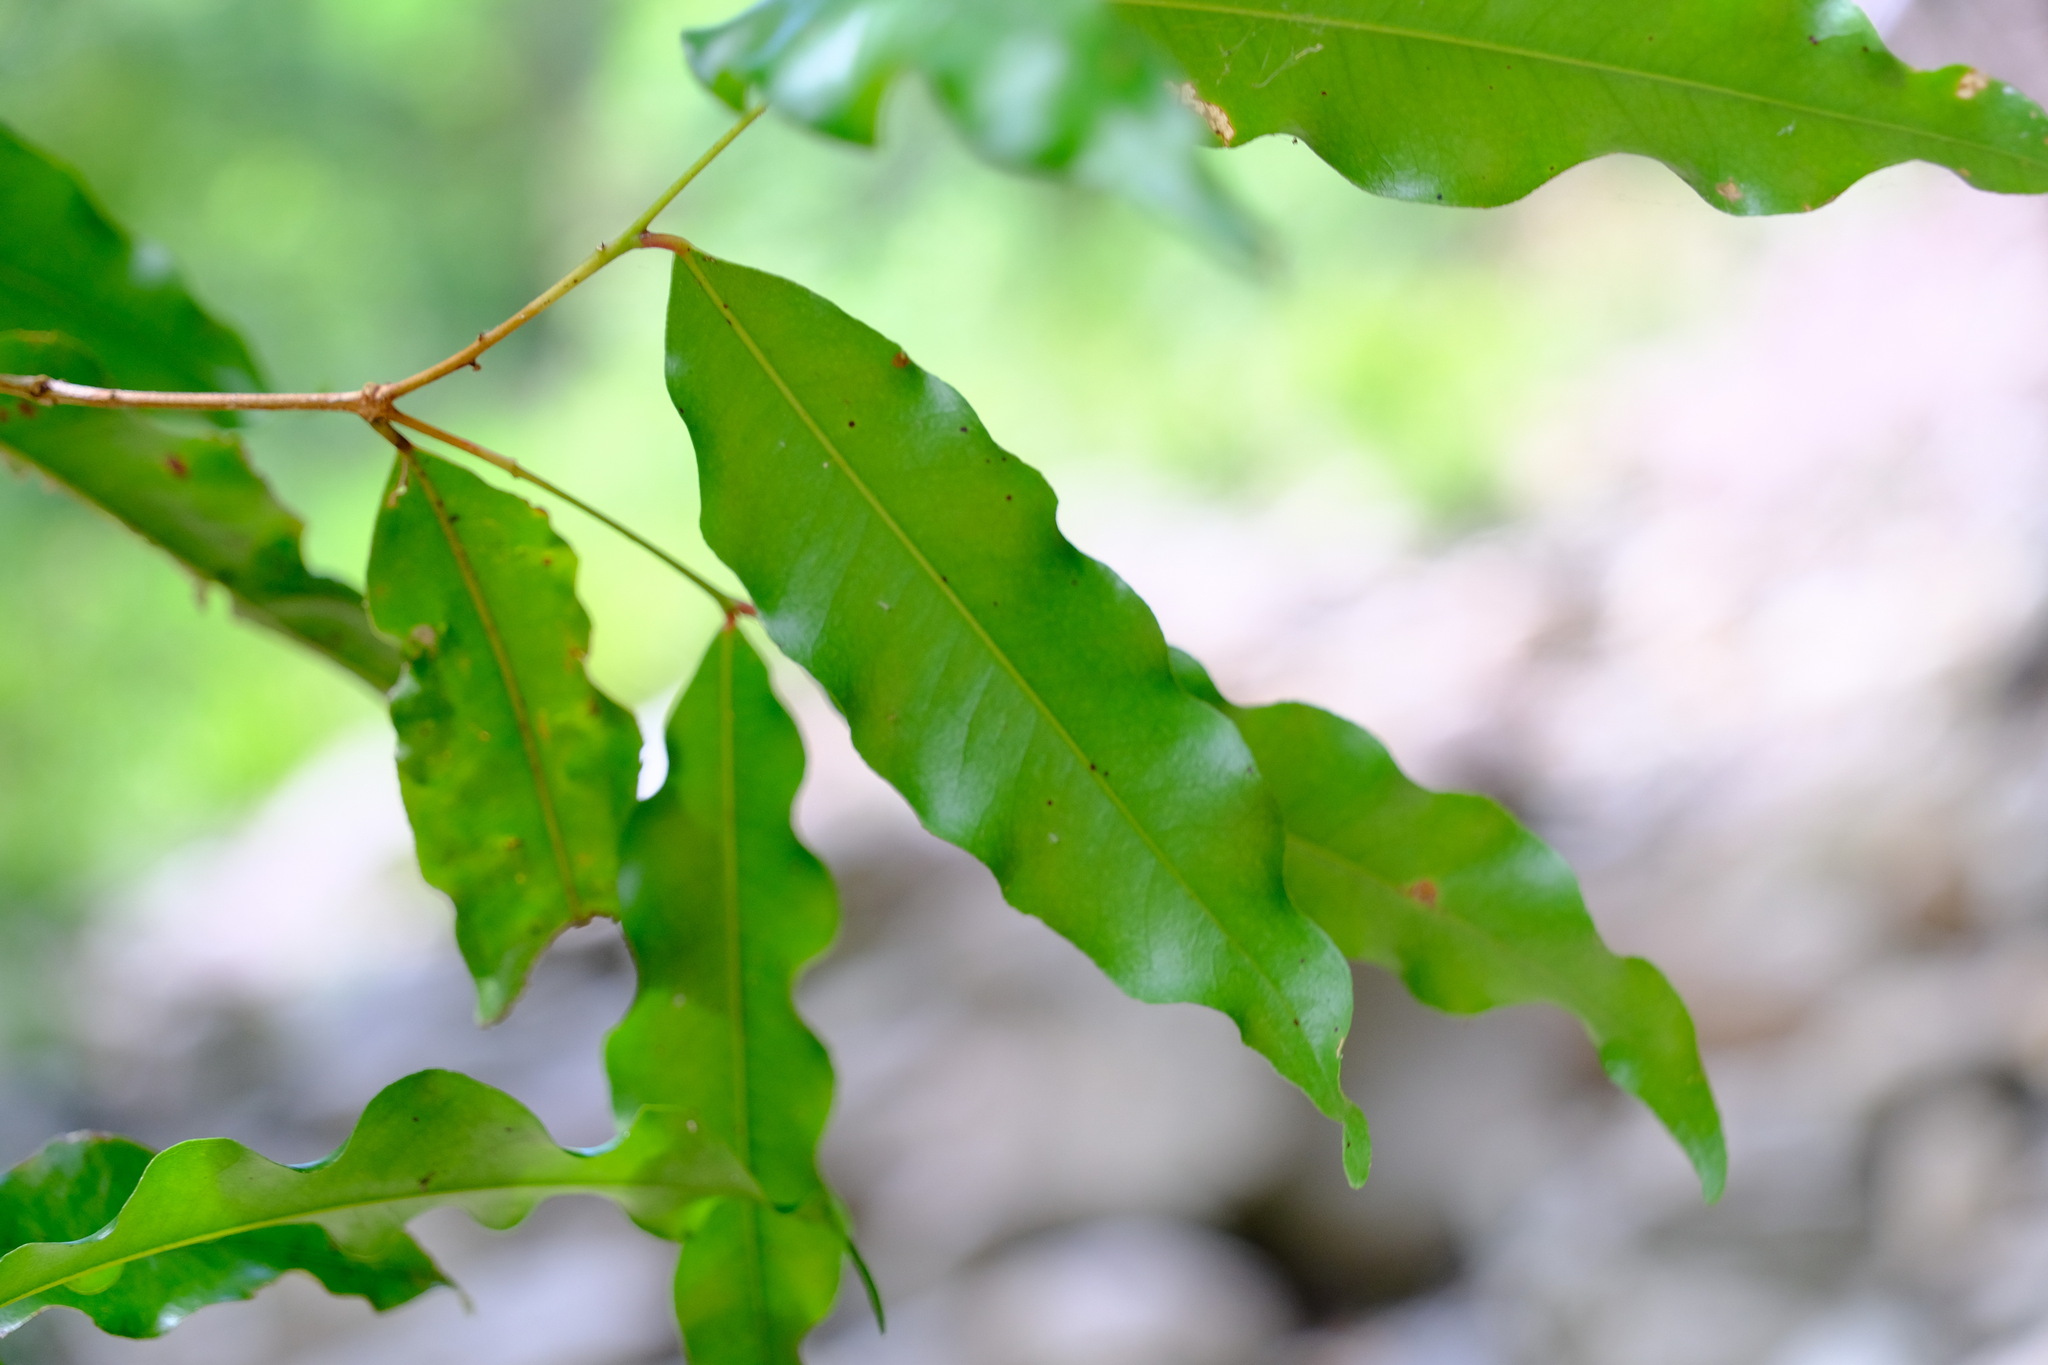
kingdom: Plantae
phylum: Tracheophyta
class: Magnoliopsida
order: Myrtales
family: Myrtaceae
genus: Syzygium
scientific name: Syzygium anisatum
